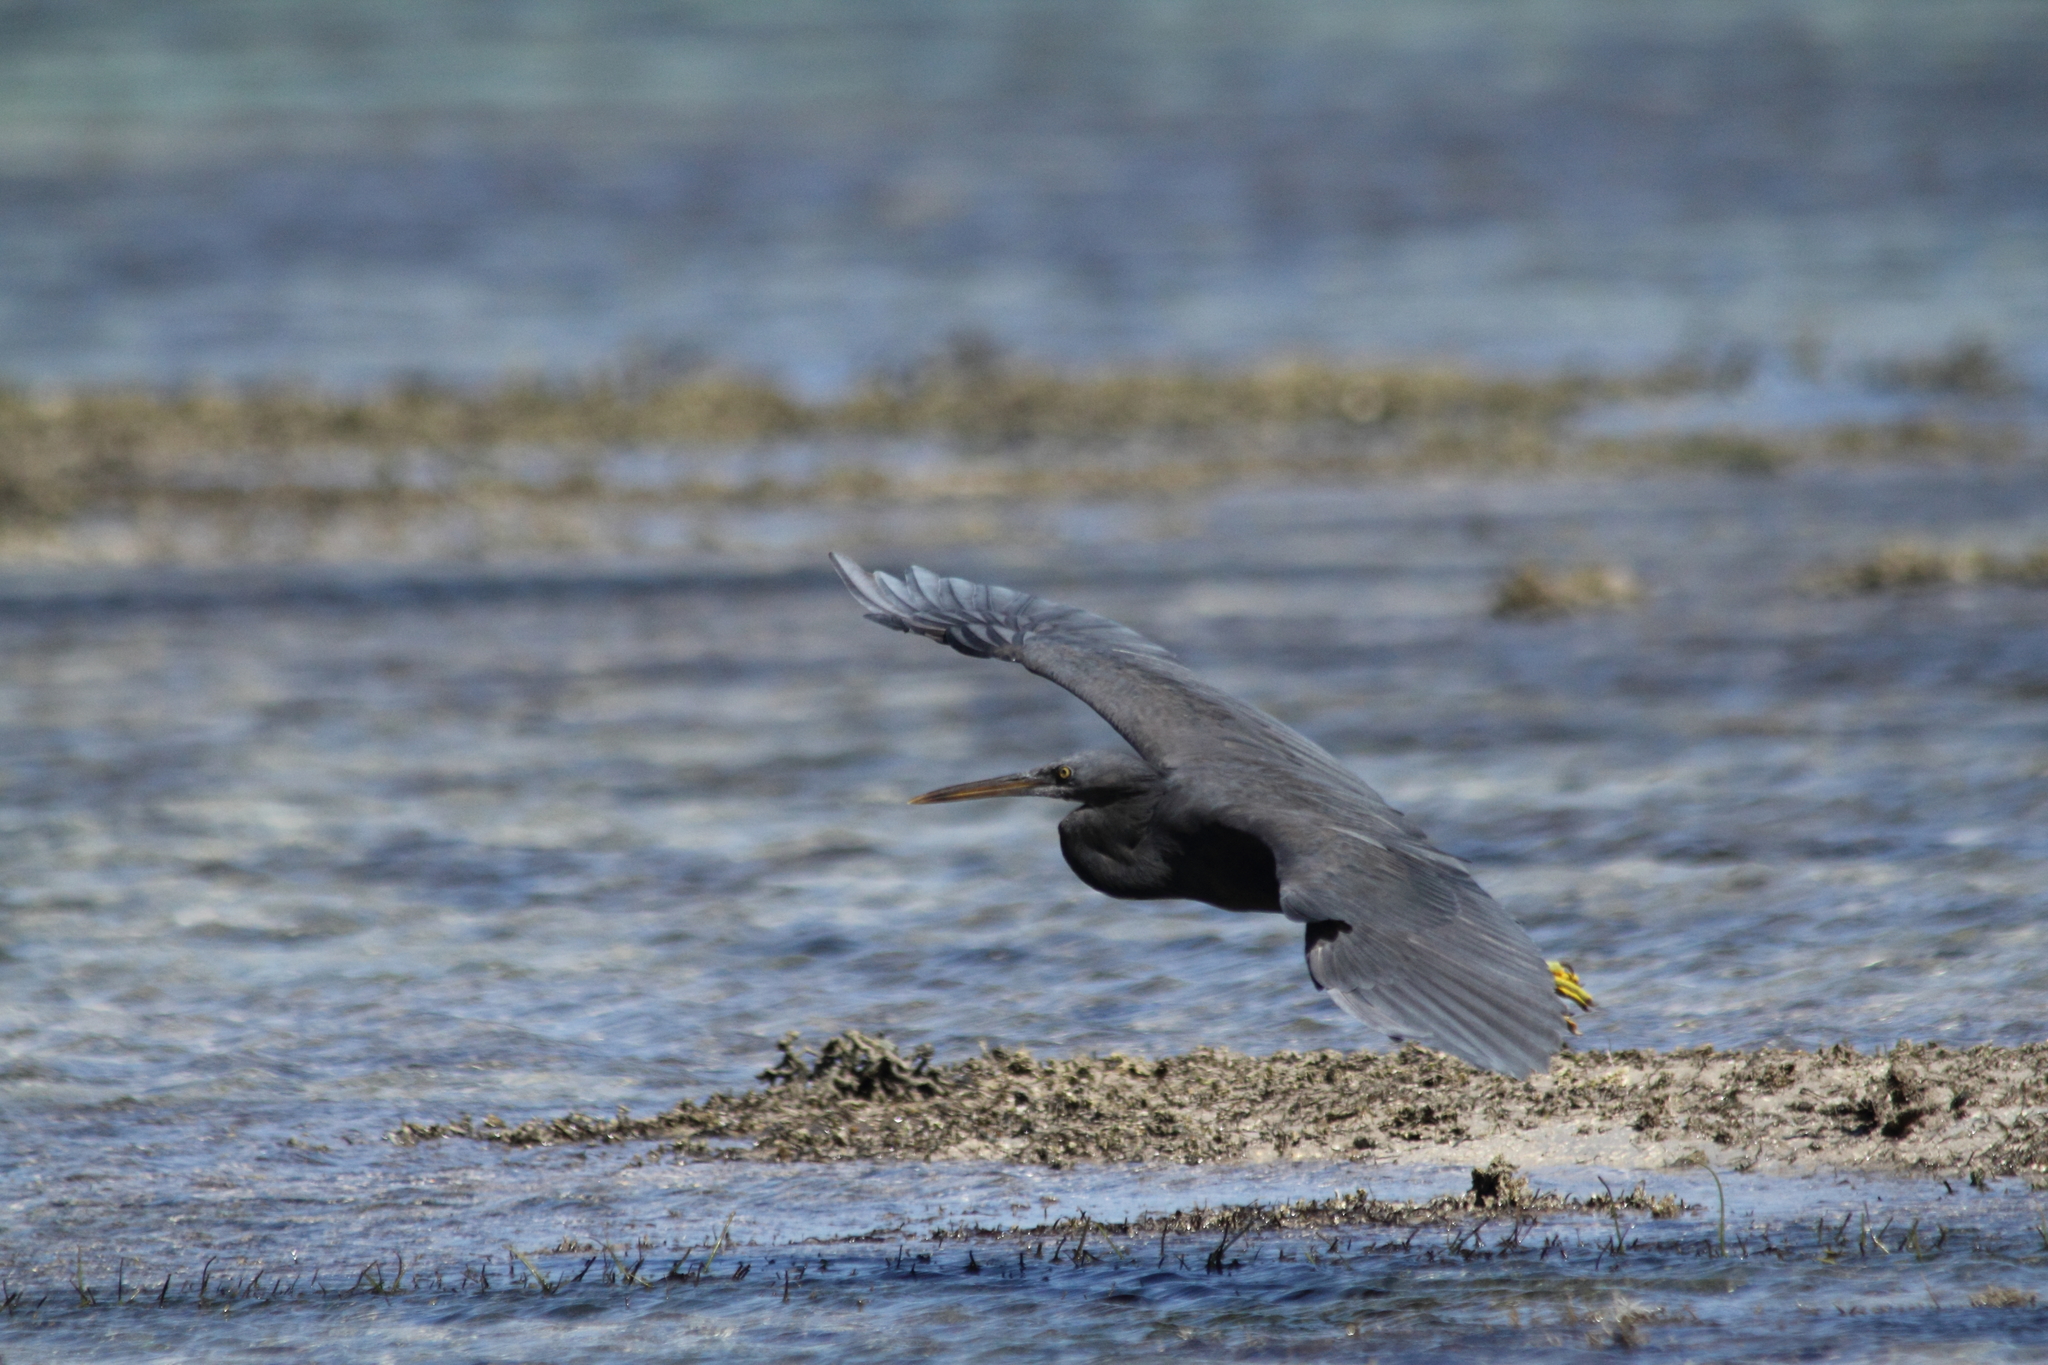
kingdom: Animalia
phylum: Chordata
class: Aves
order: Pelecaniformes
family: Ardeidae
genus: Egretta
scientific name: Egretta sacra
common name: Pacific reef heron
